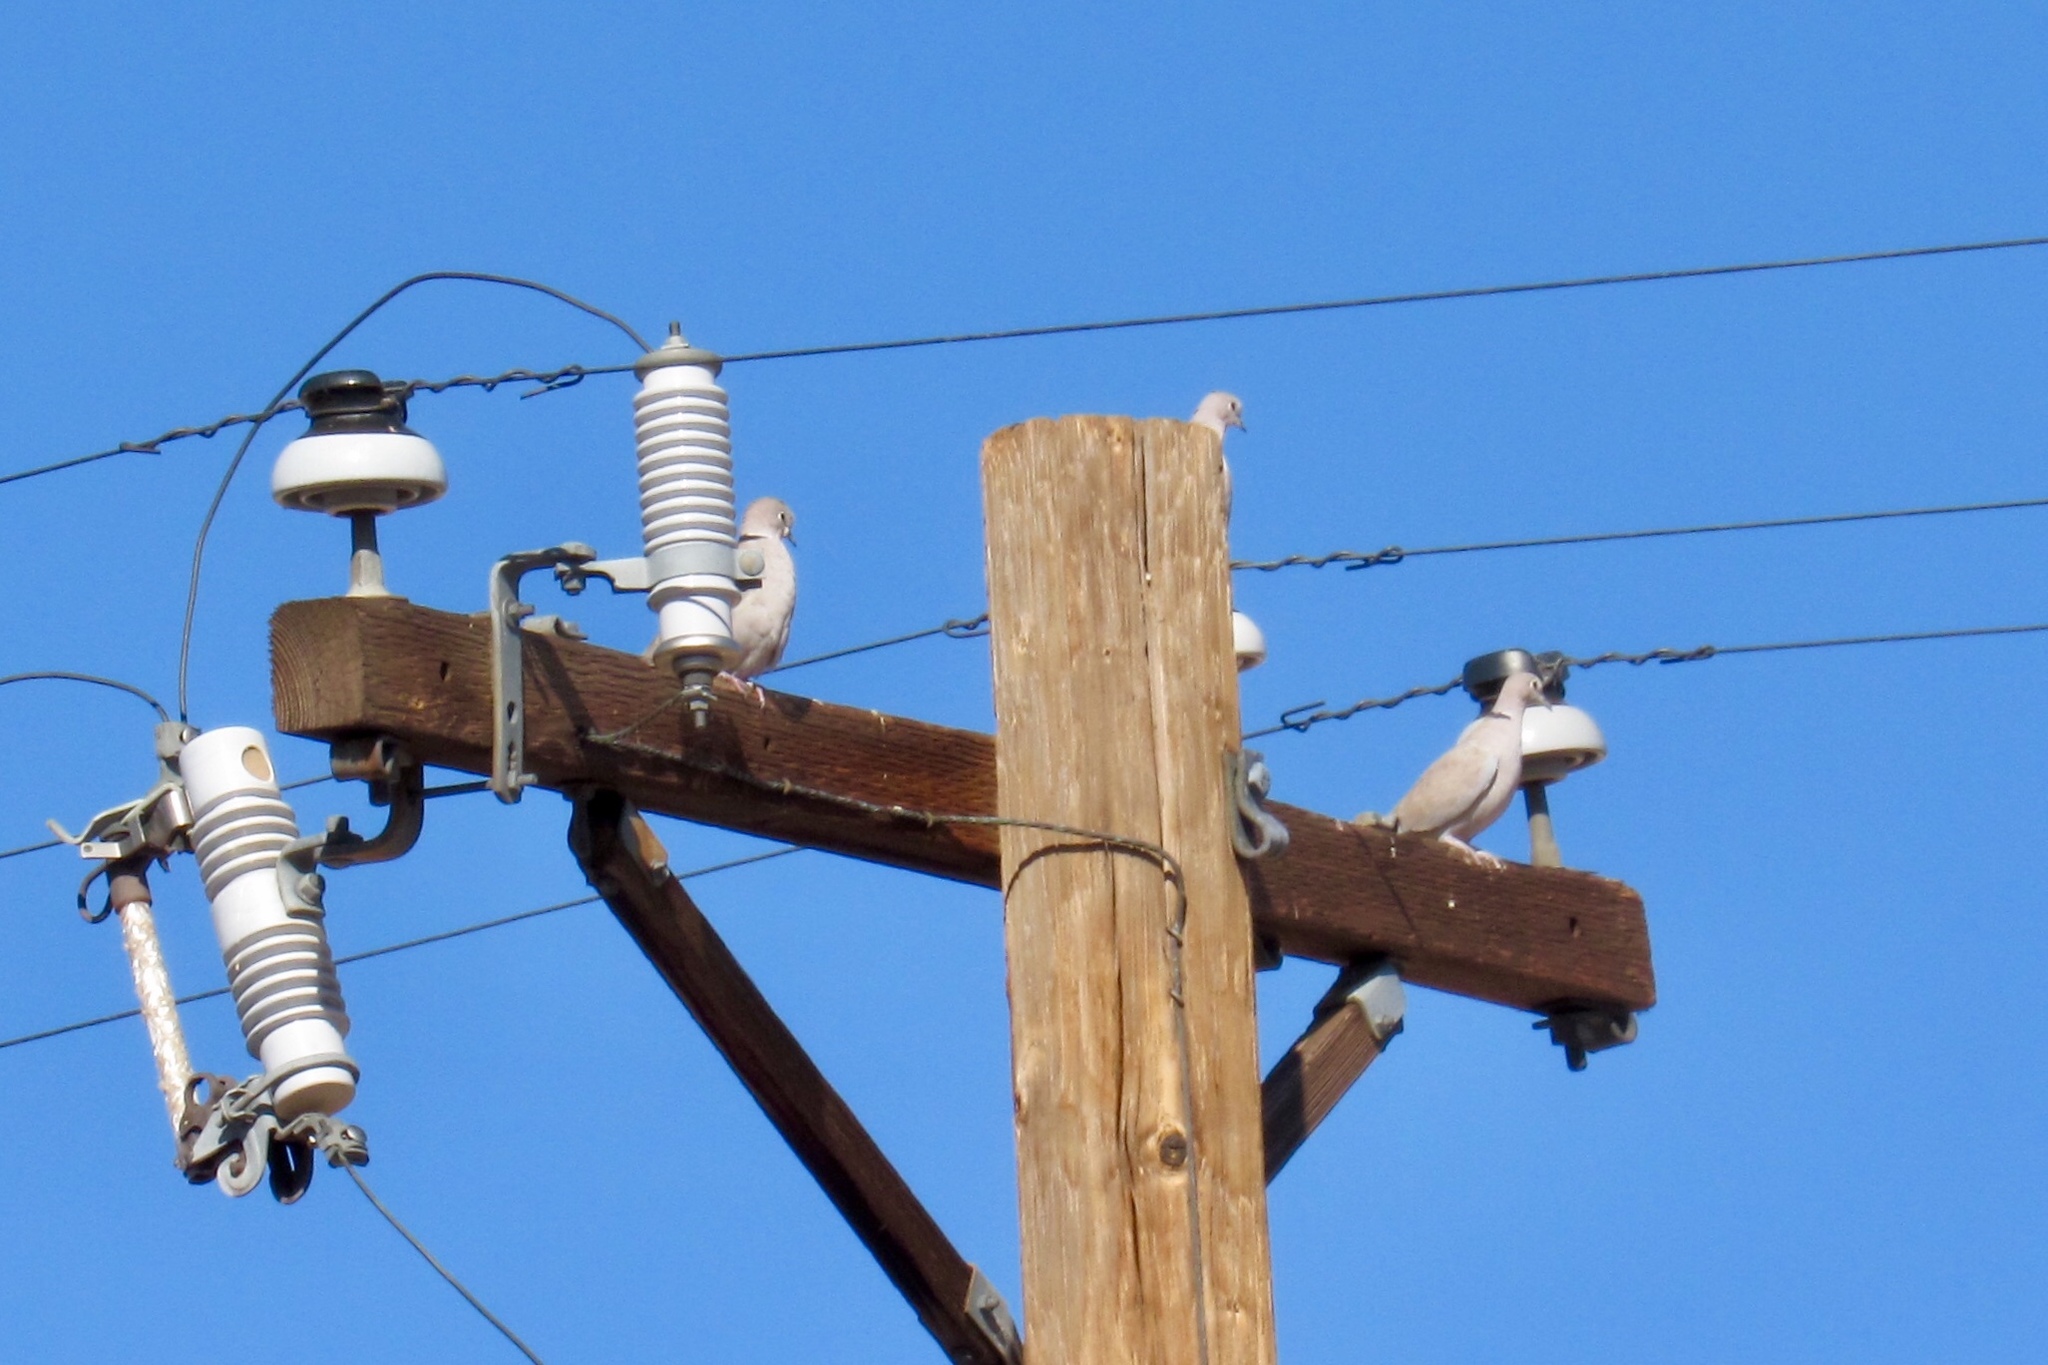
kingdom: Animalia
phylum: Chordata
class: Aves
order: Columbiformes
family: Columbidae
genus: Streptopelia
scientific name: Streptopelia decaocto
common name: Eurasian collared dove
